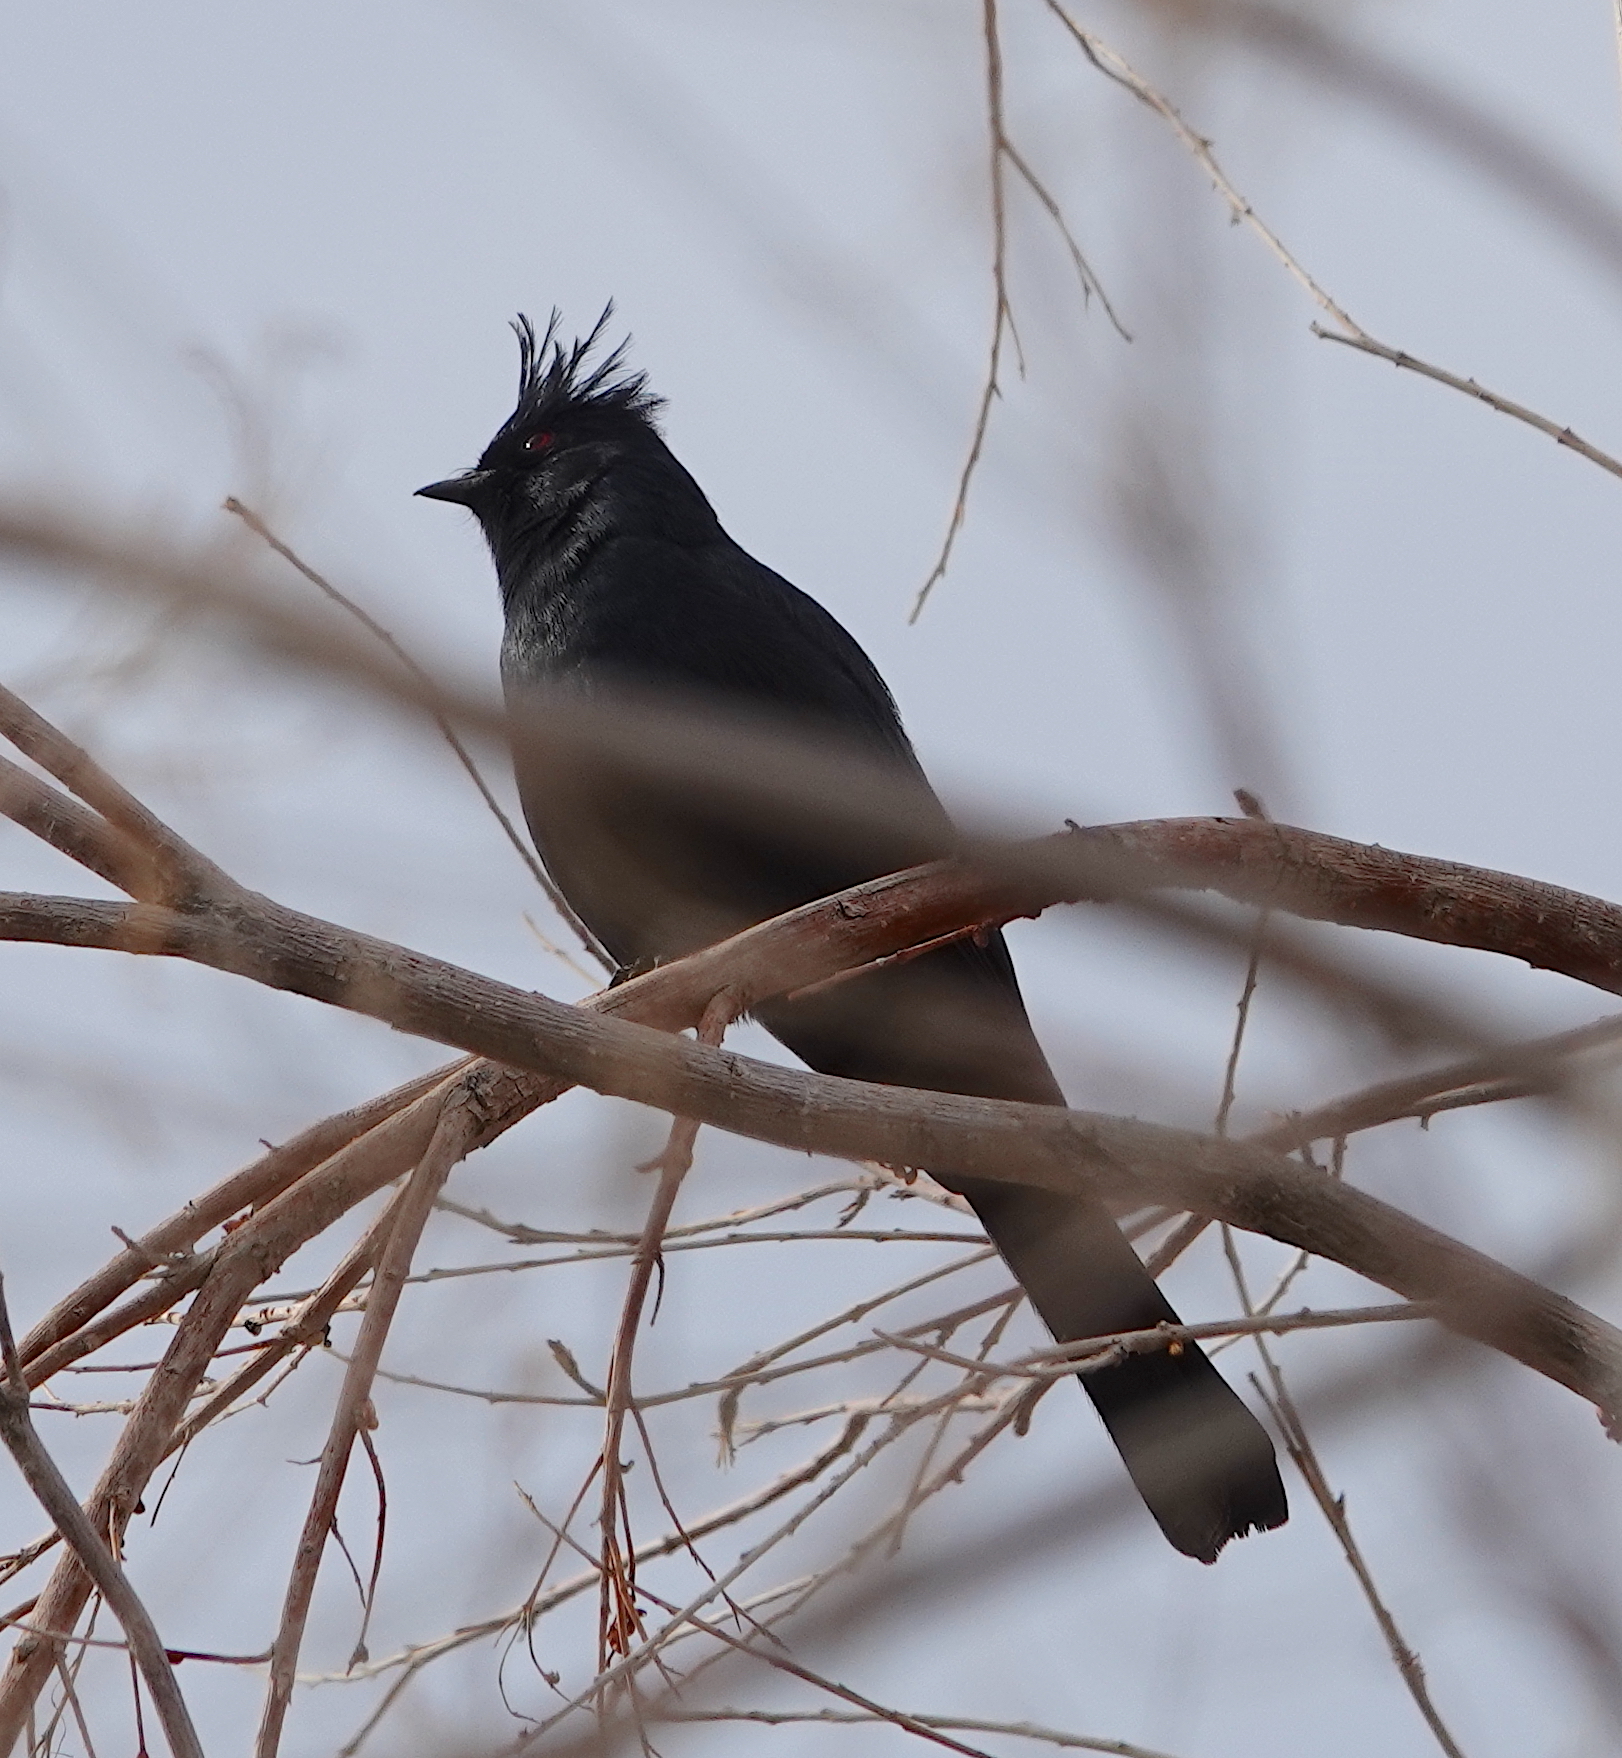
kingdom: Animalia
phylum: Chordata
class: Aves
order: Passeriformes
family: Ptilogonatidae
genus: Phainopepla
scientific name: Phainopepla nitens
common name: Phainopepla
